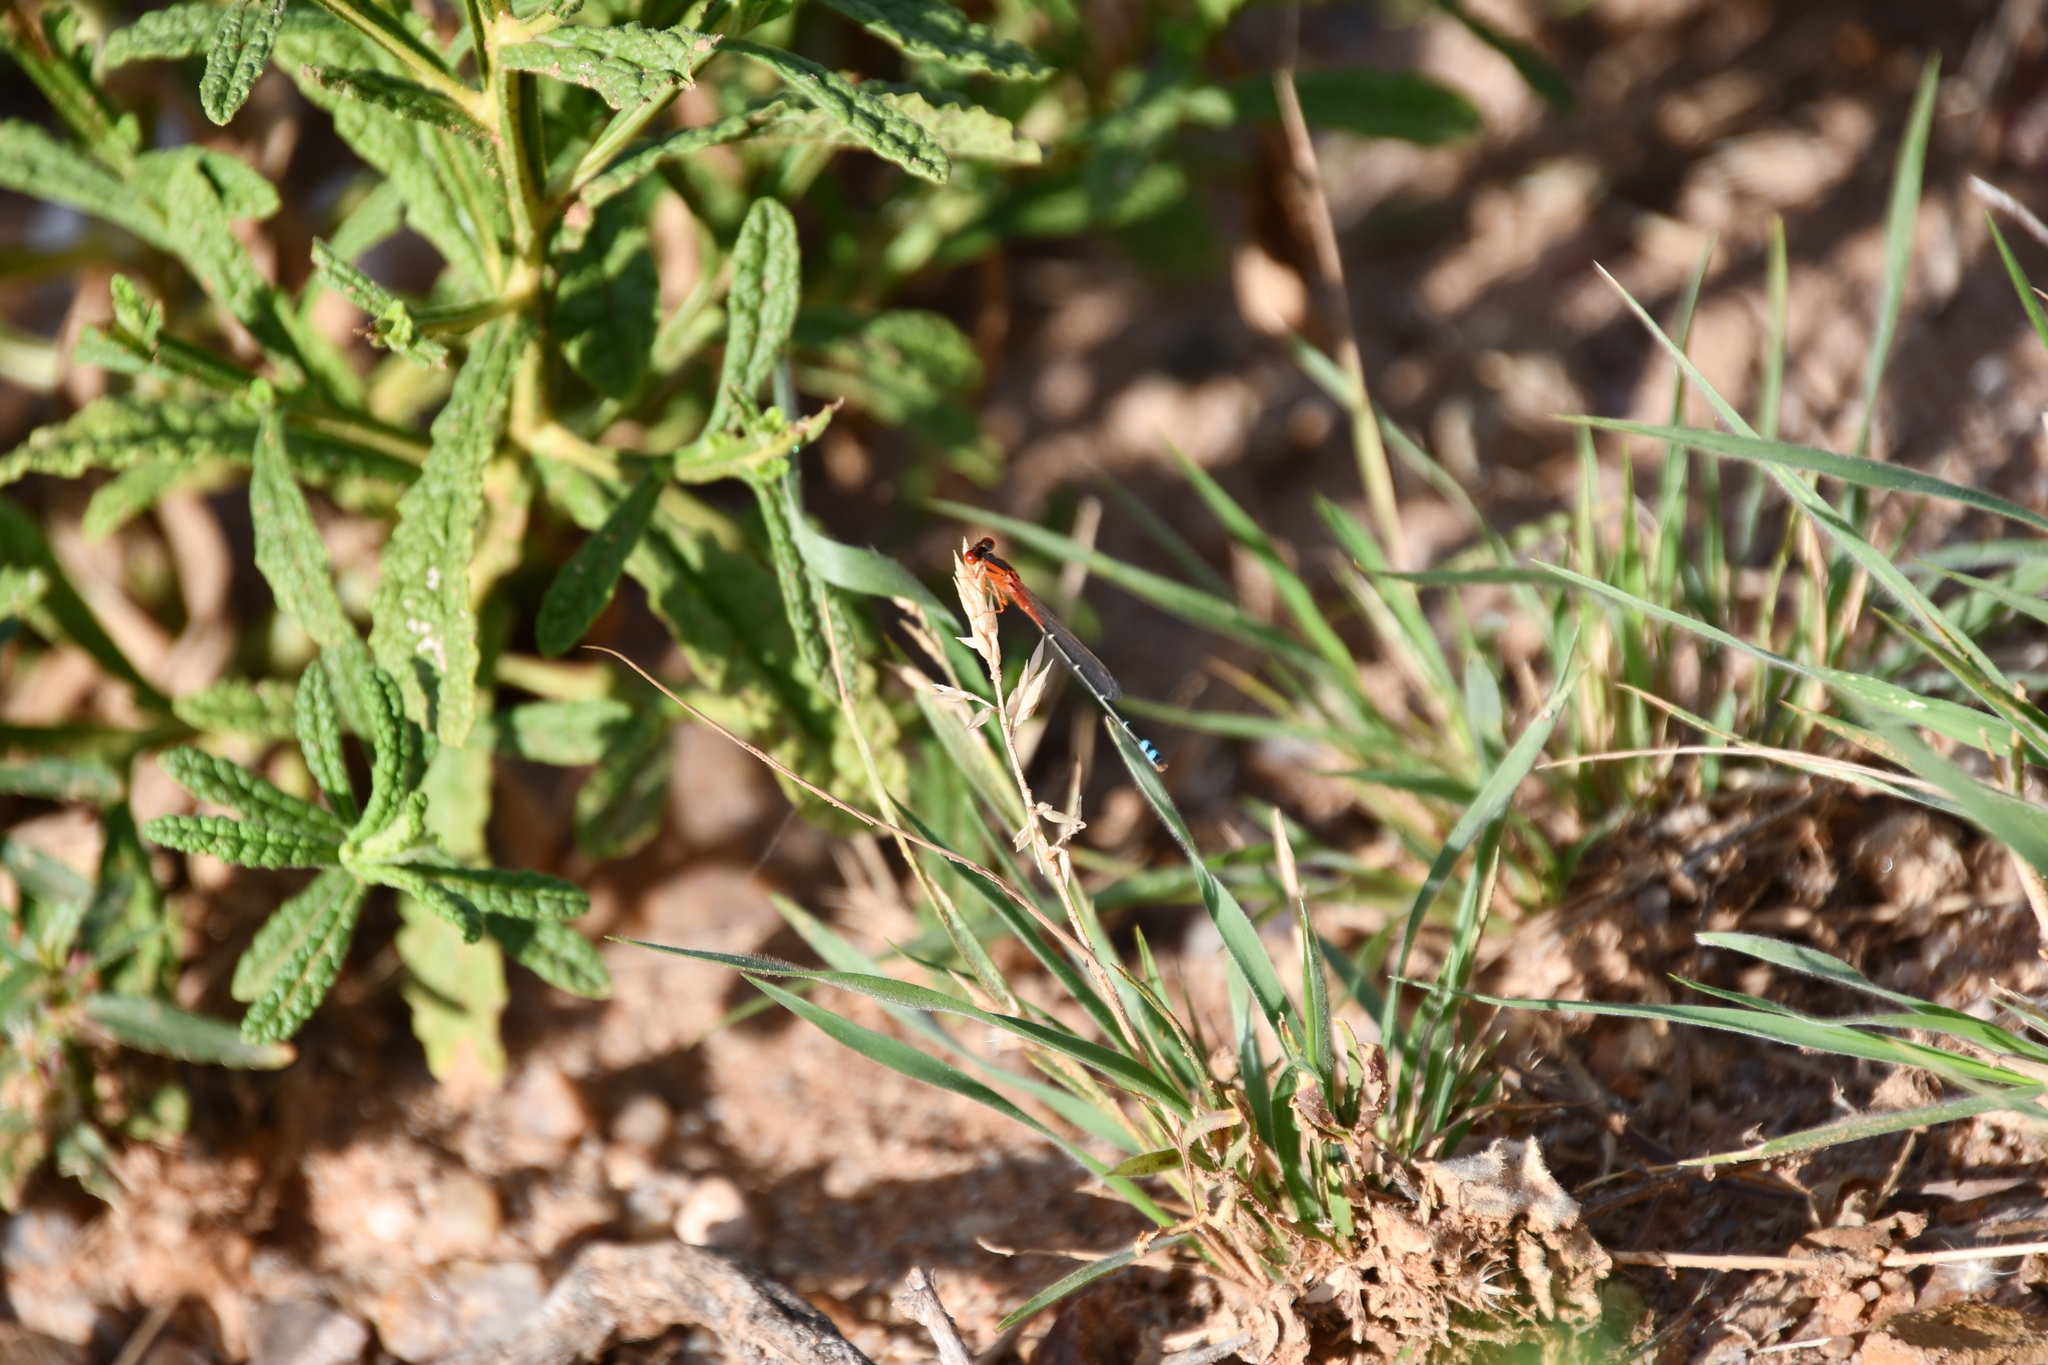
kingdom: Animalia
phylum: Arthropoda
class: Insecta
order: Odonata
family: Coenagrionidae
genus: Xanthagrion
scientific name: Xanthagrion erythroneurum
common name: Red and blue damsel
